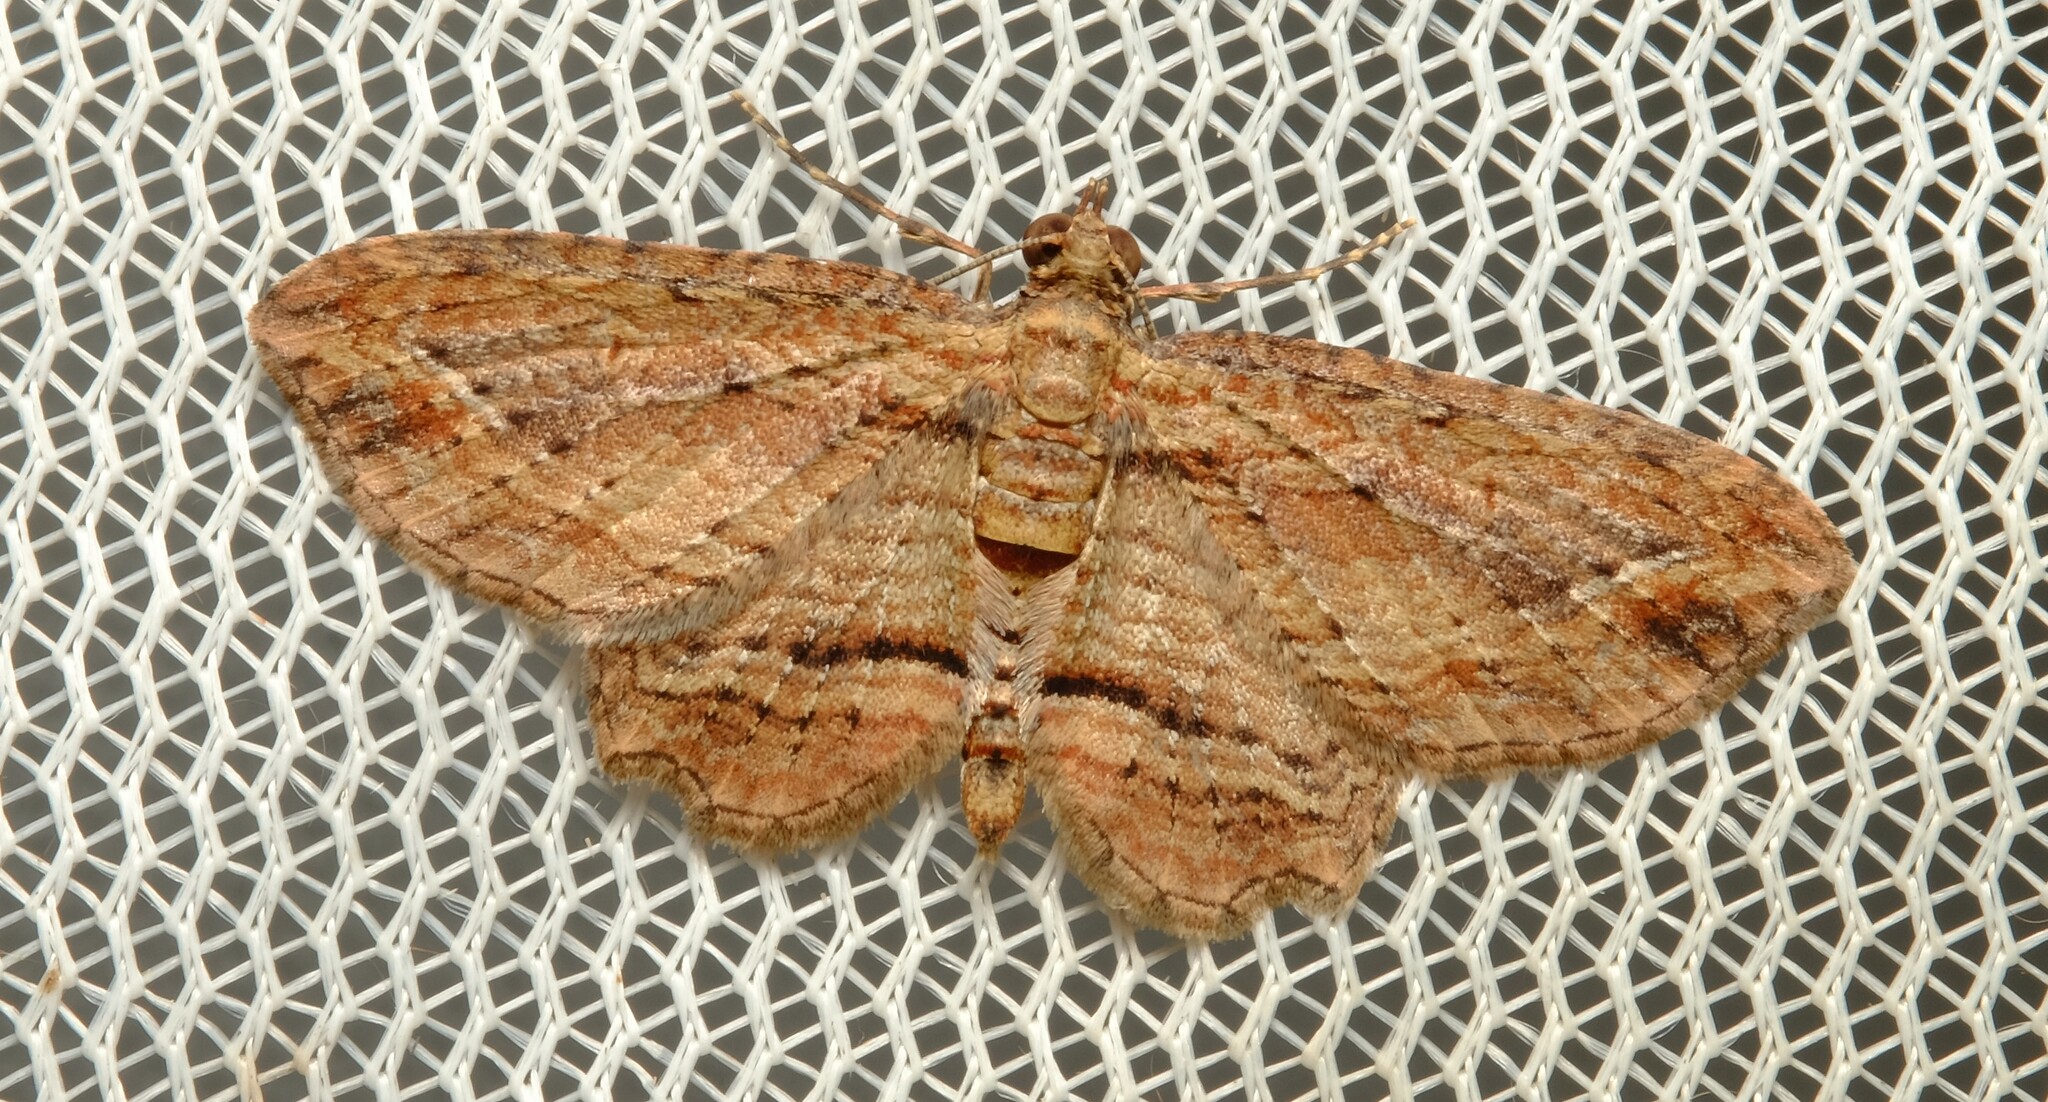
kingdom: Animalia
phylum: Arthropoda
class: Insecta
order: Lepidoptera
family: Geometridae
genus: Chloroclystis
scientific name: Chloroclystis filata
